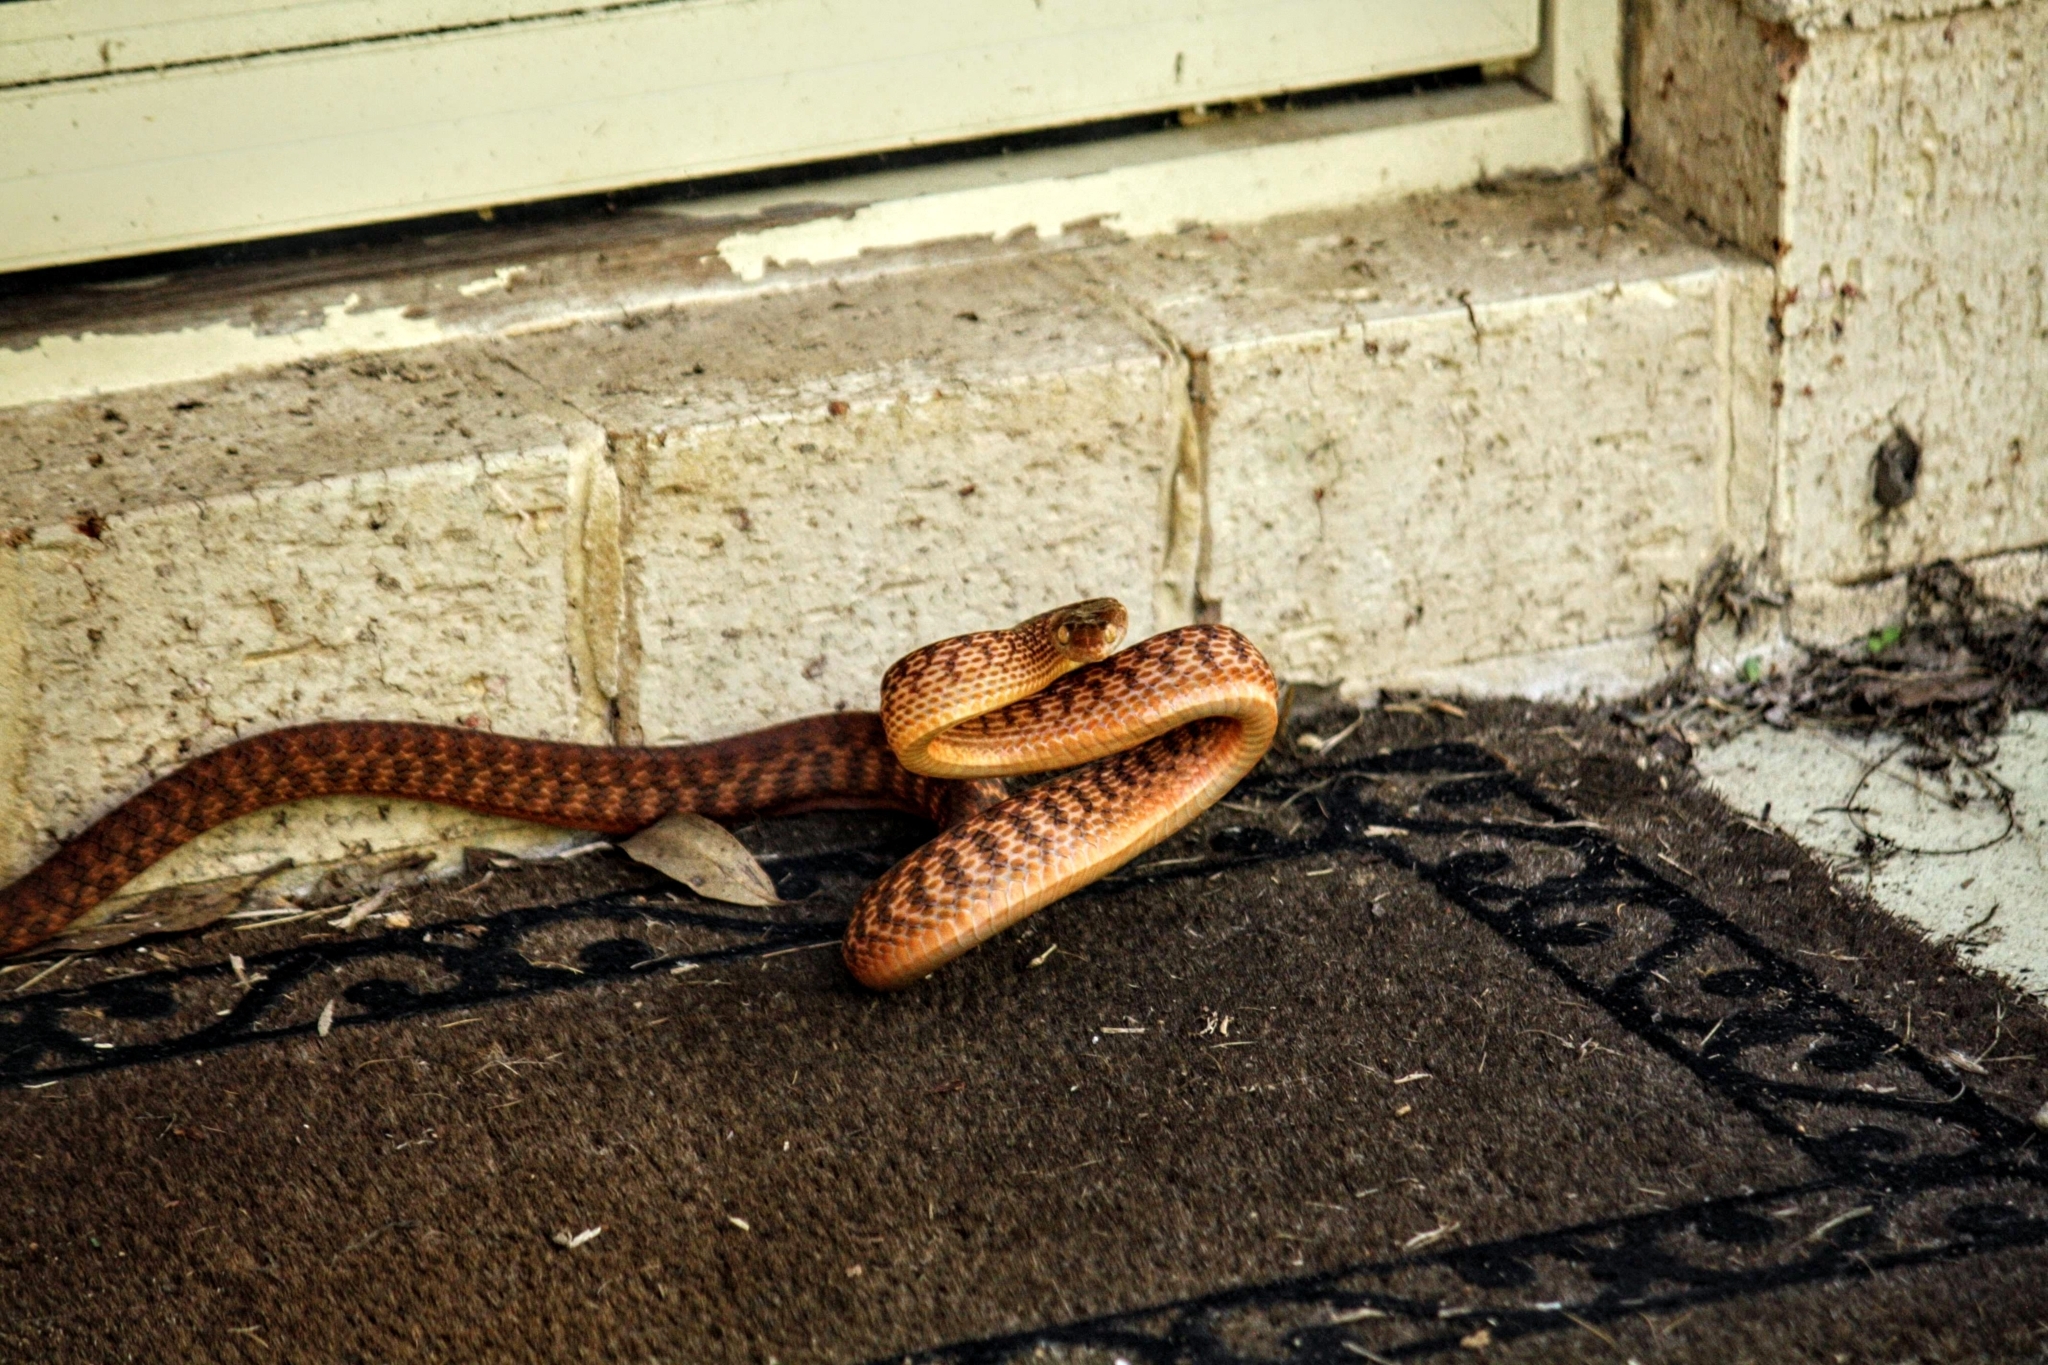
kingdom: Animalia
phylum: Chordata
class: Squamata
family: Colubridae
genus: Boiga
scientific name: Boiga irregularis
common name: Brown tree snake
